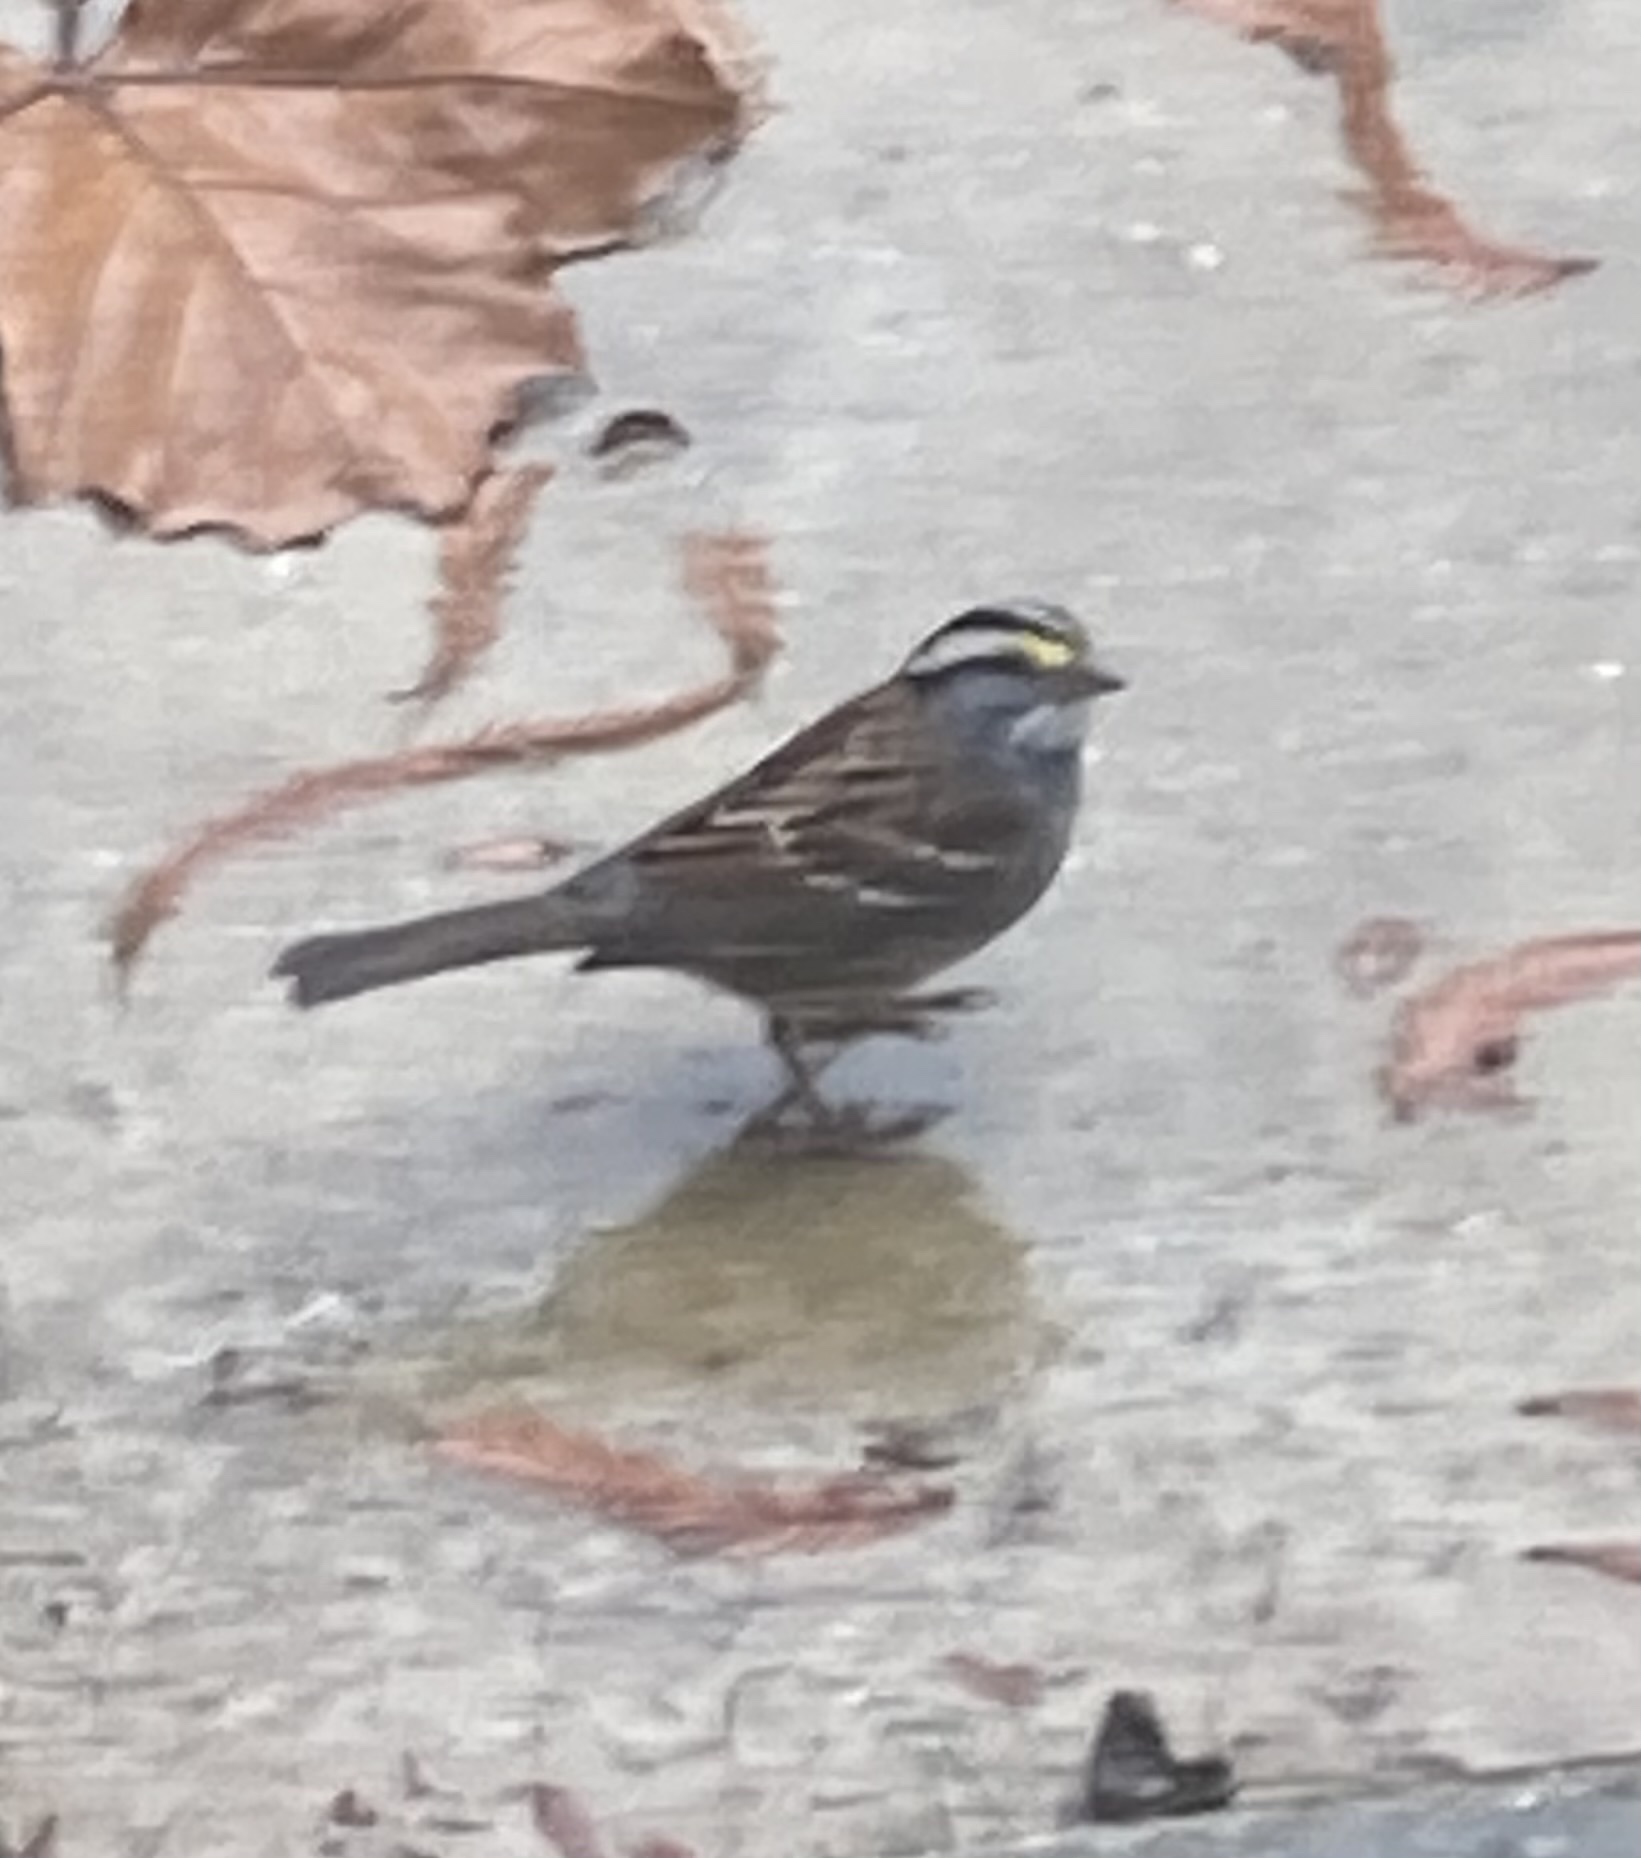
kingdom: Animalia
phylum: Chordata
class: Aves
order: Passeriformes
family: Passerellidae
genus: Zonotrichia
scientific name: Zonotrichia albicollis
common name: White-throated sparrow
